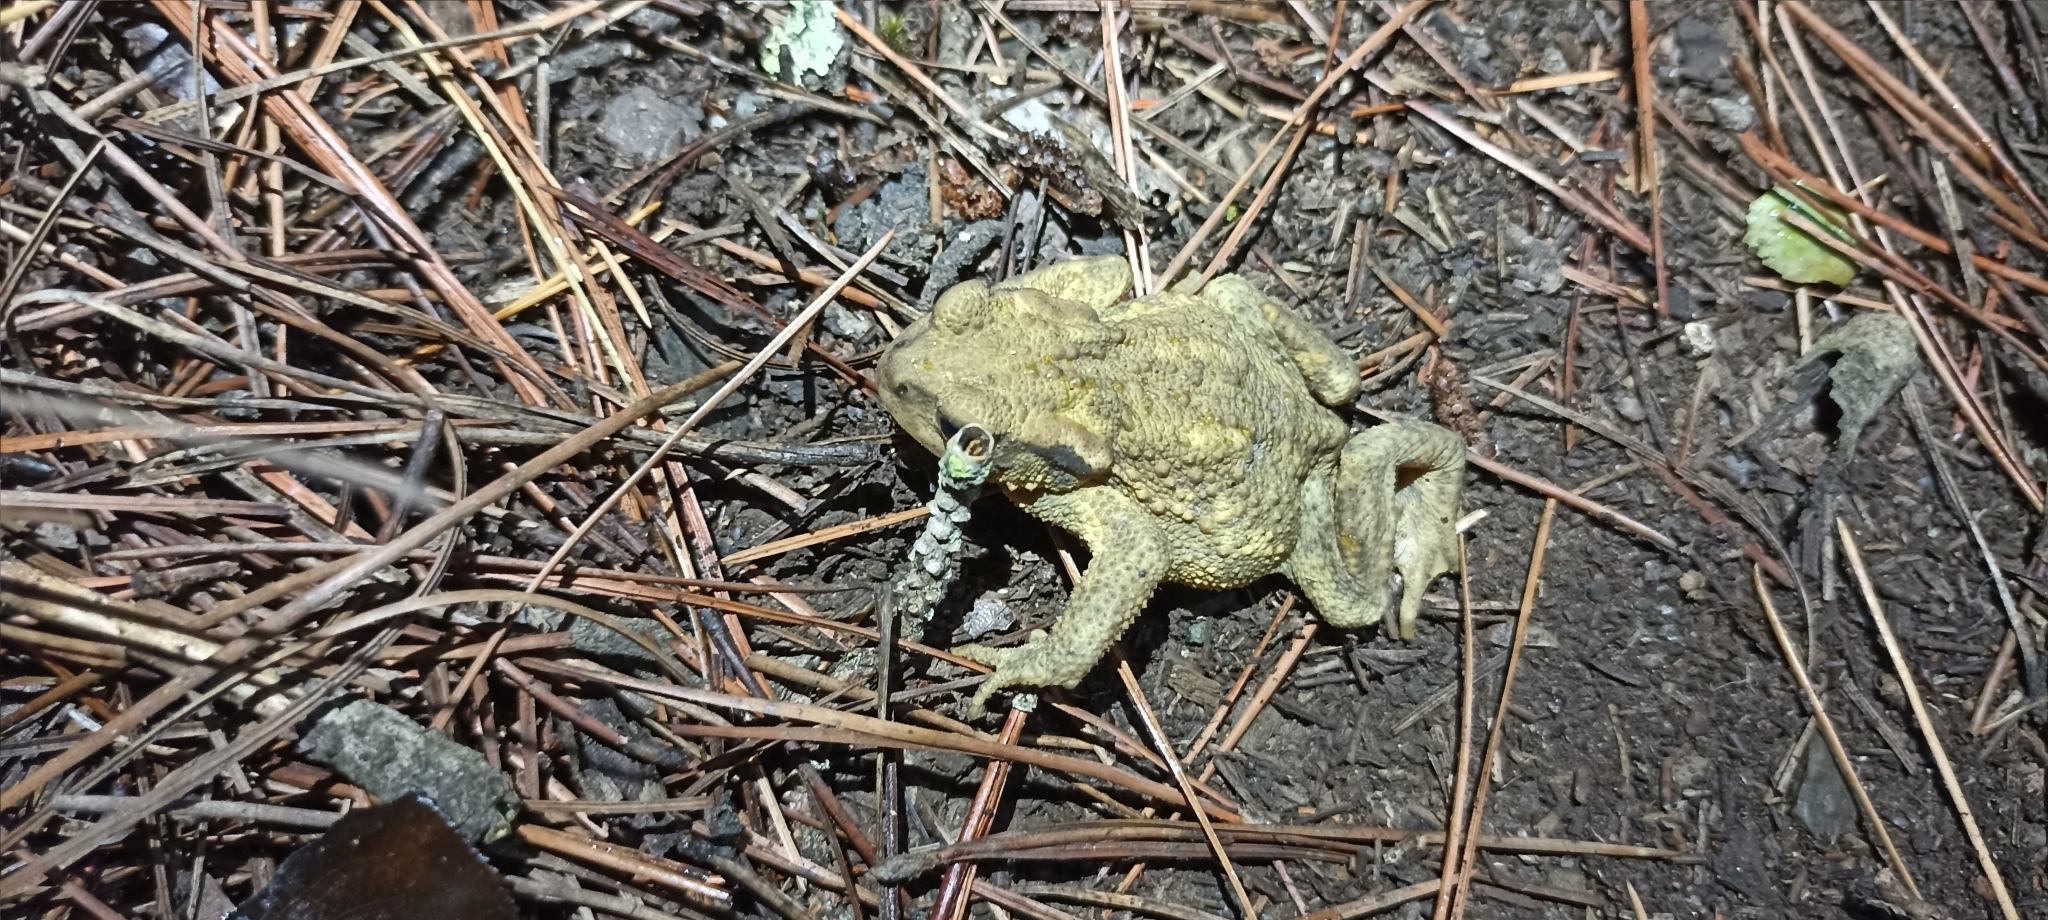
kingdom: Animalia
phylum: Chordata
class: Amphibia
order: Anura
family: Bufonidae
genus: Bufo
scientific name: Bufo spinosus
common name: Western common toad
